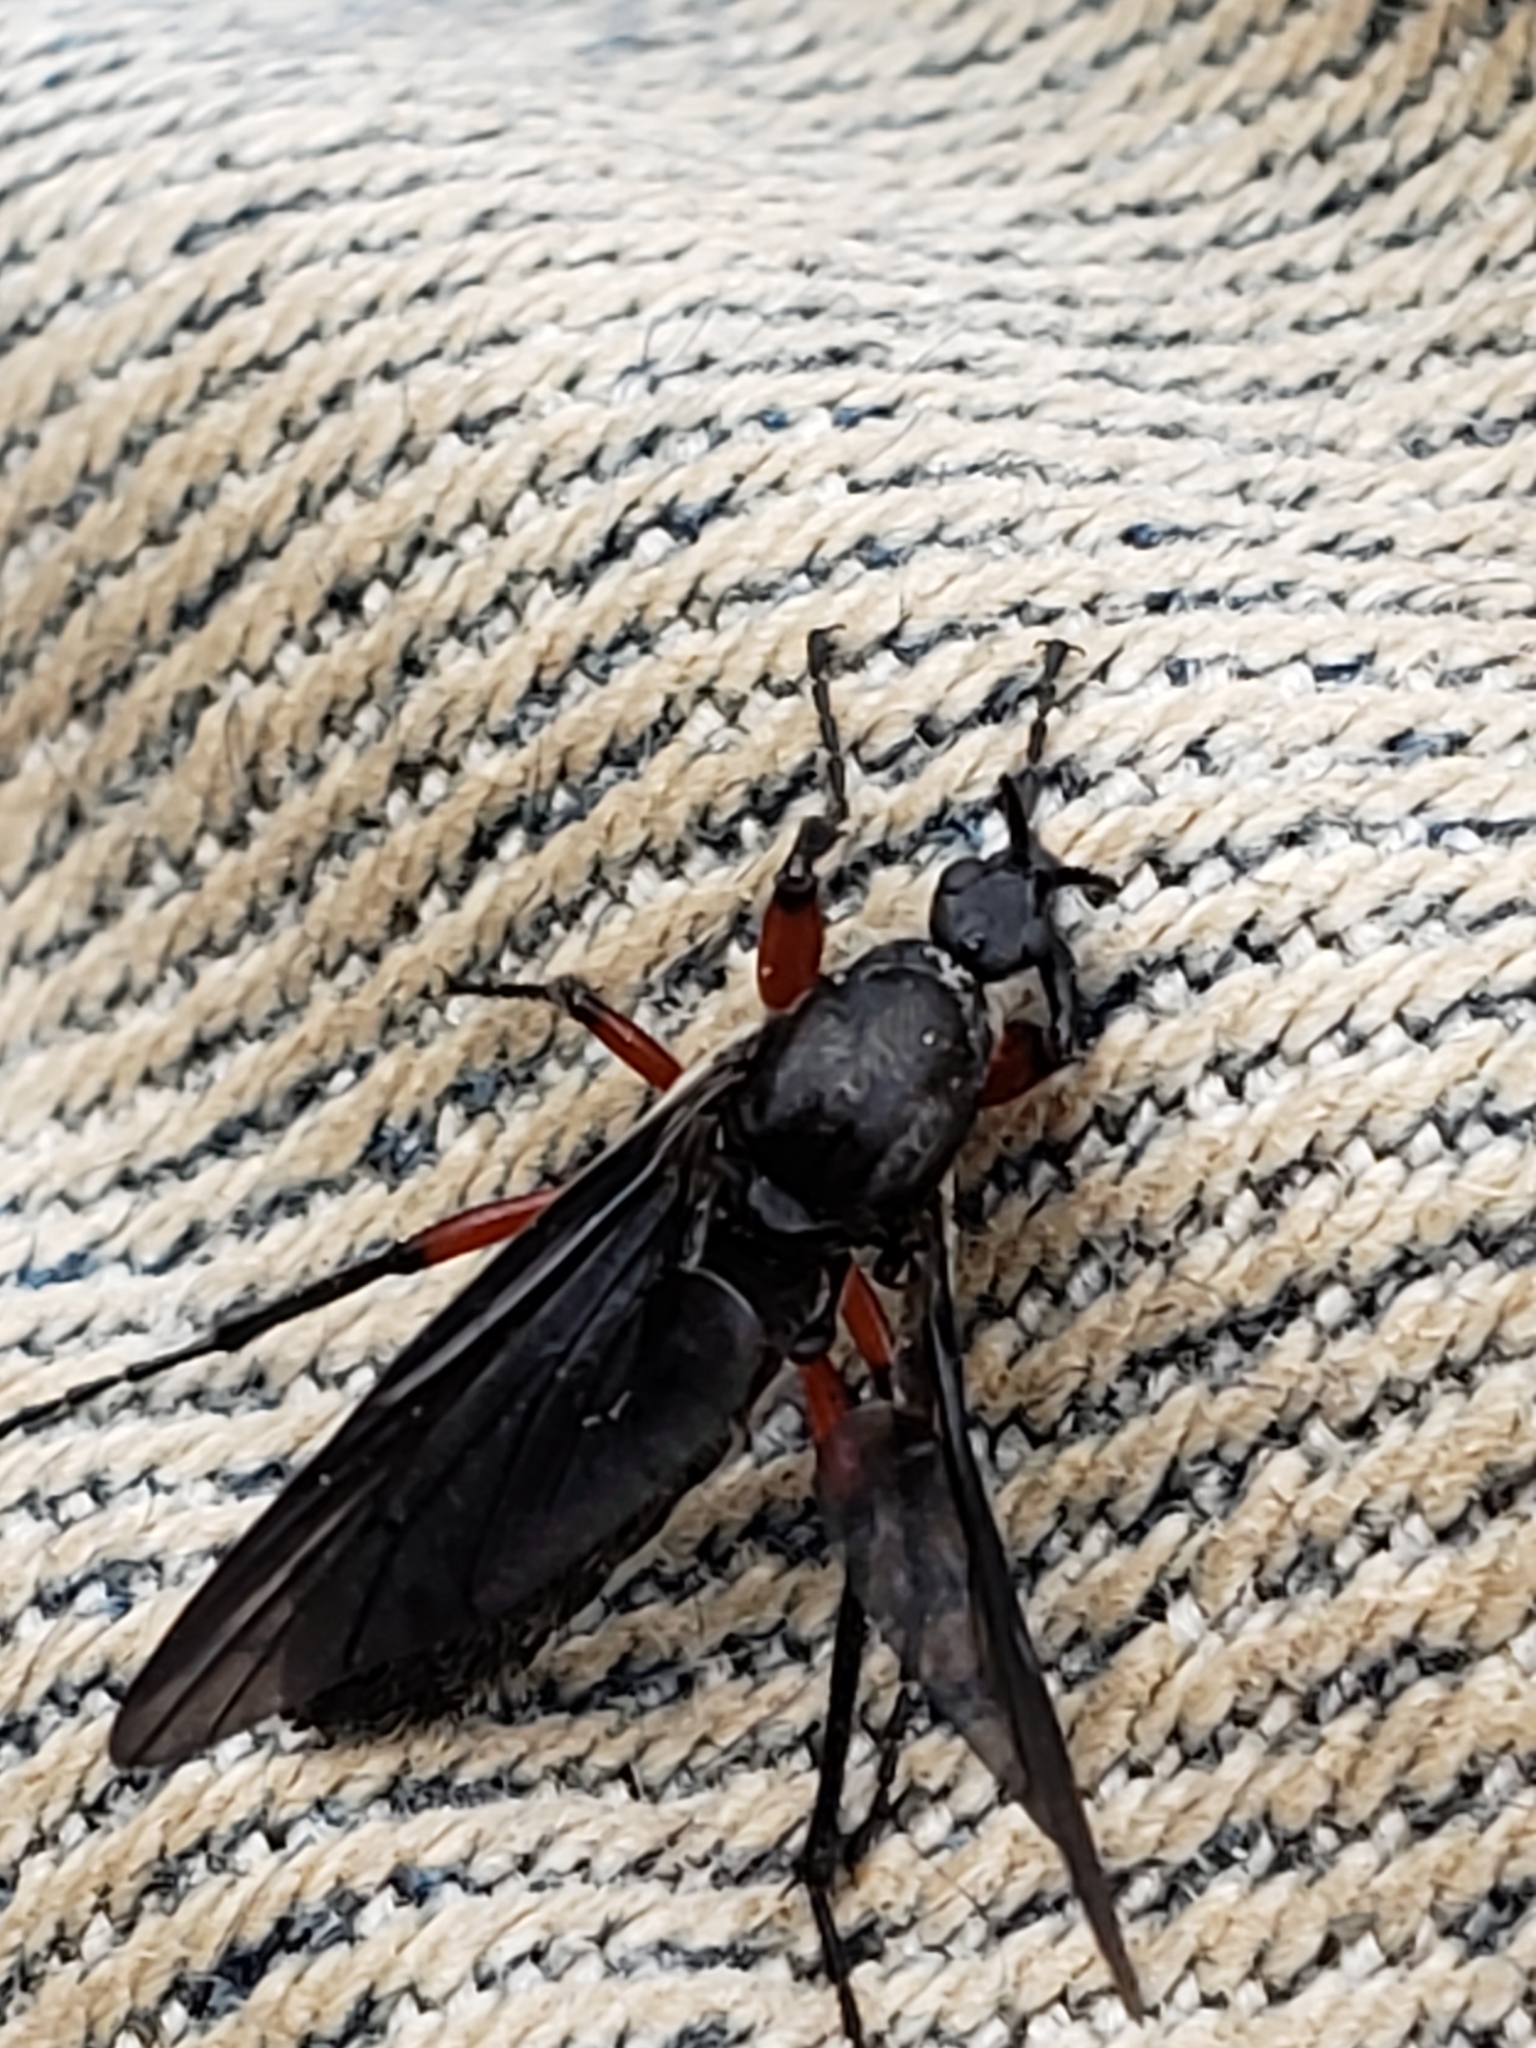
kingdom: Animalia
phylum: Arthropoda
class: Insecta
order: Diptera
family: Bibionidae
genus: Bibio
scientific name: Bibio femoratus
